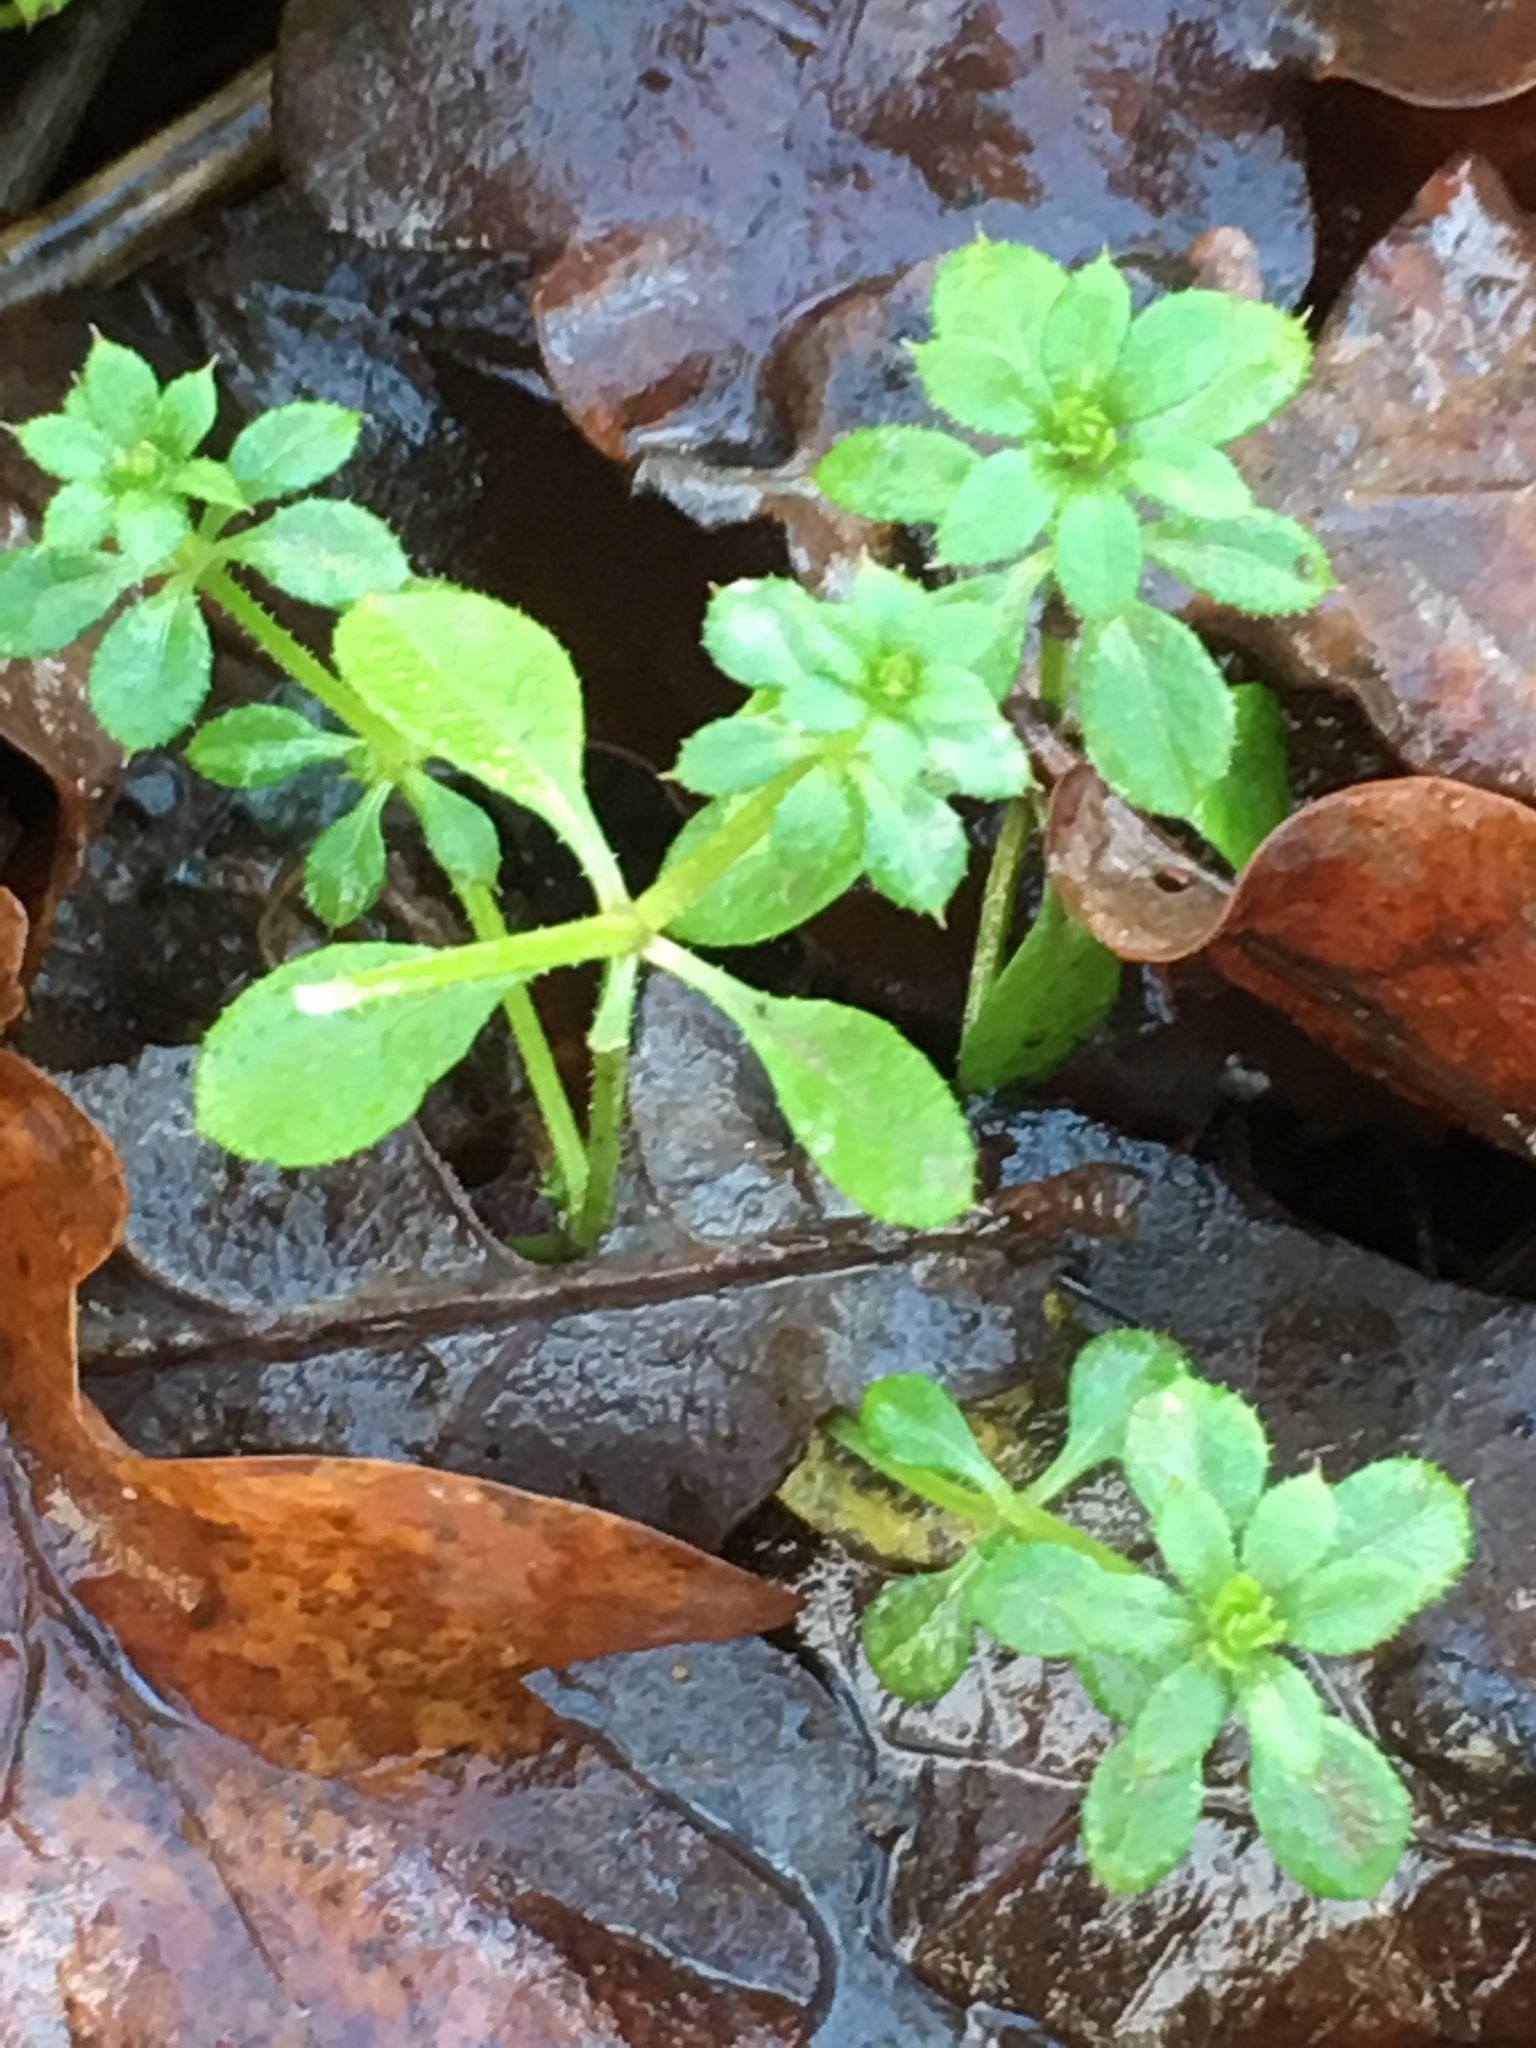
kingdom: Plantae
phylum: Tracheophyta
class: Magnoliopsida
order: Gentianales
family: Rubiaceae
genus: Galium
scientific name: Galium aparine
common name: Cleavers
